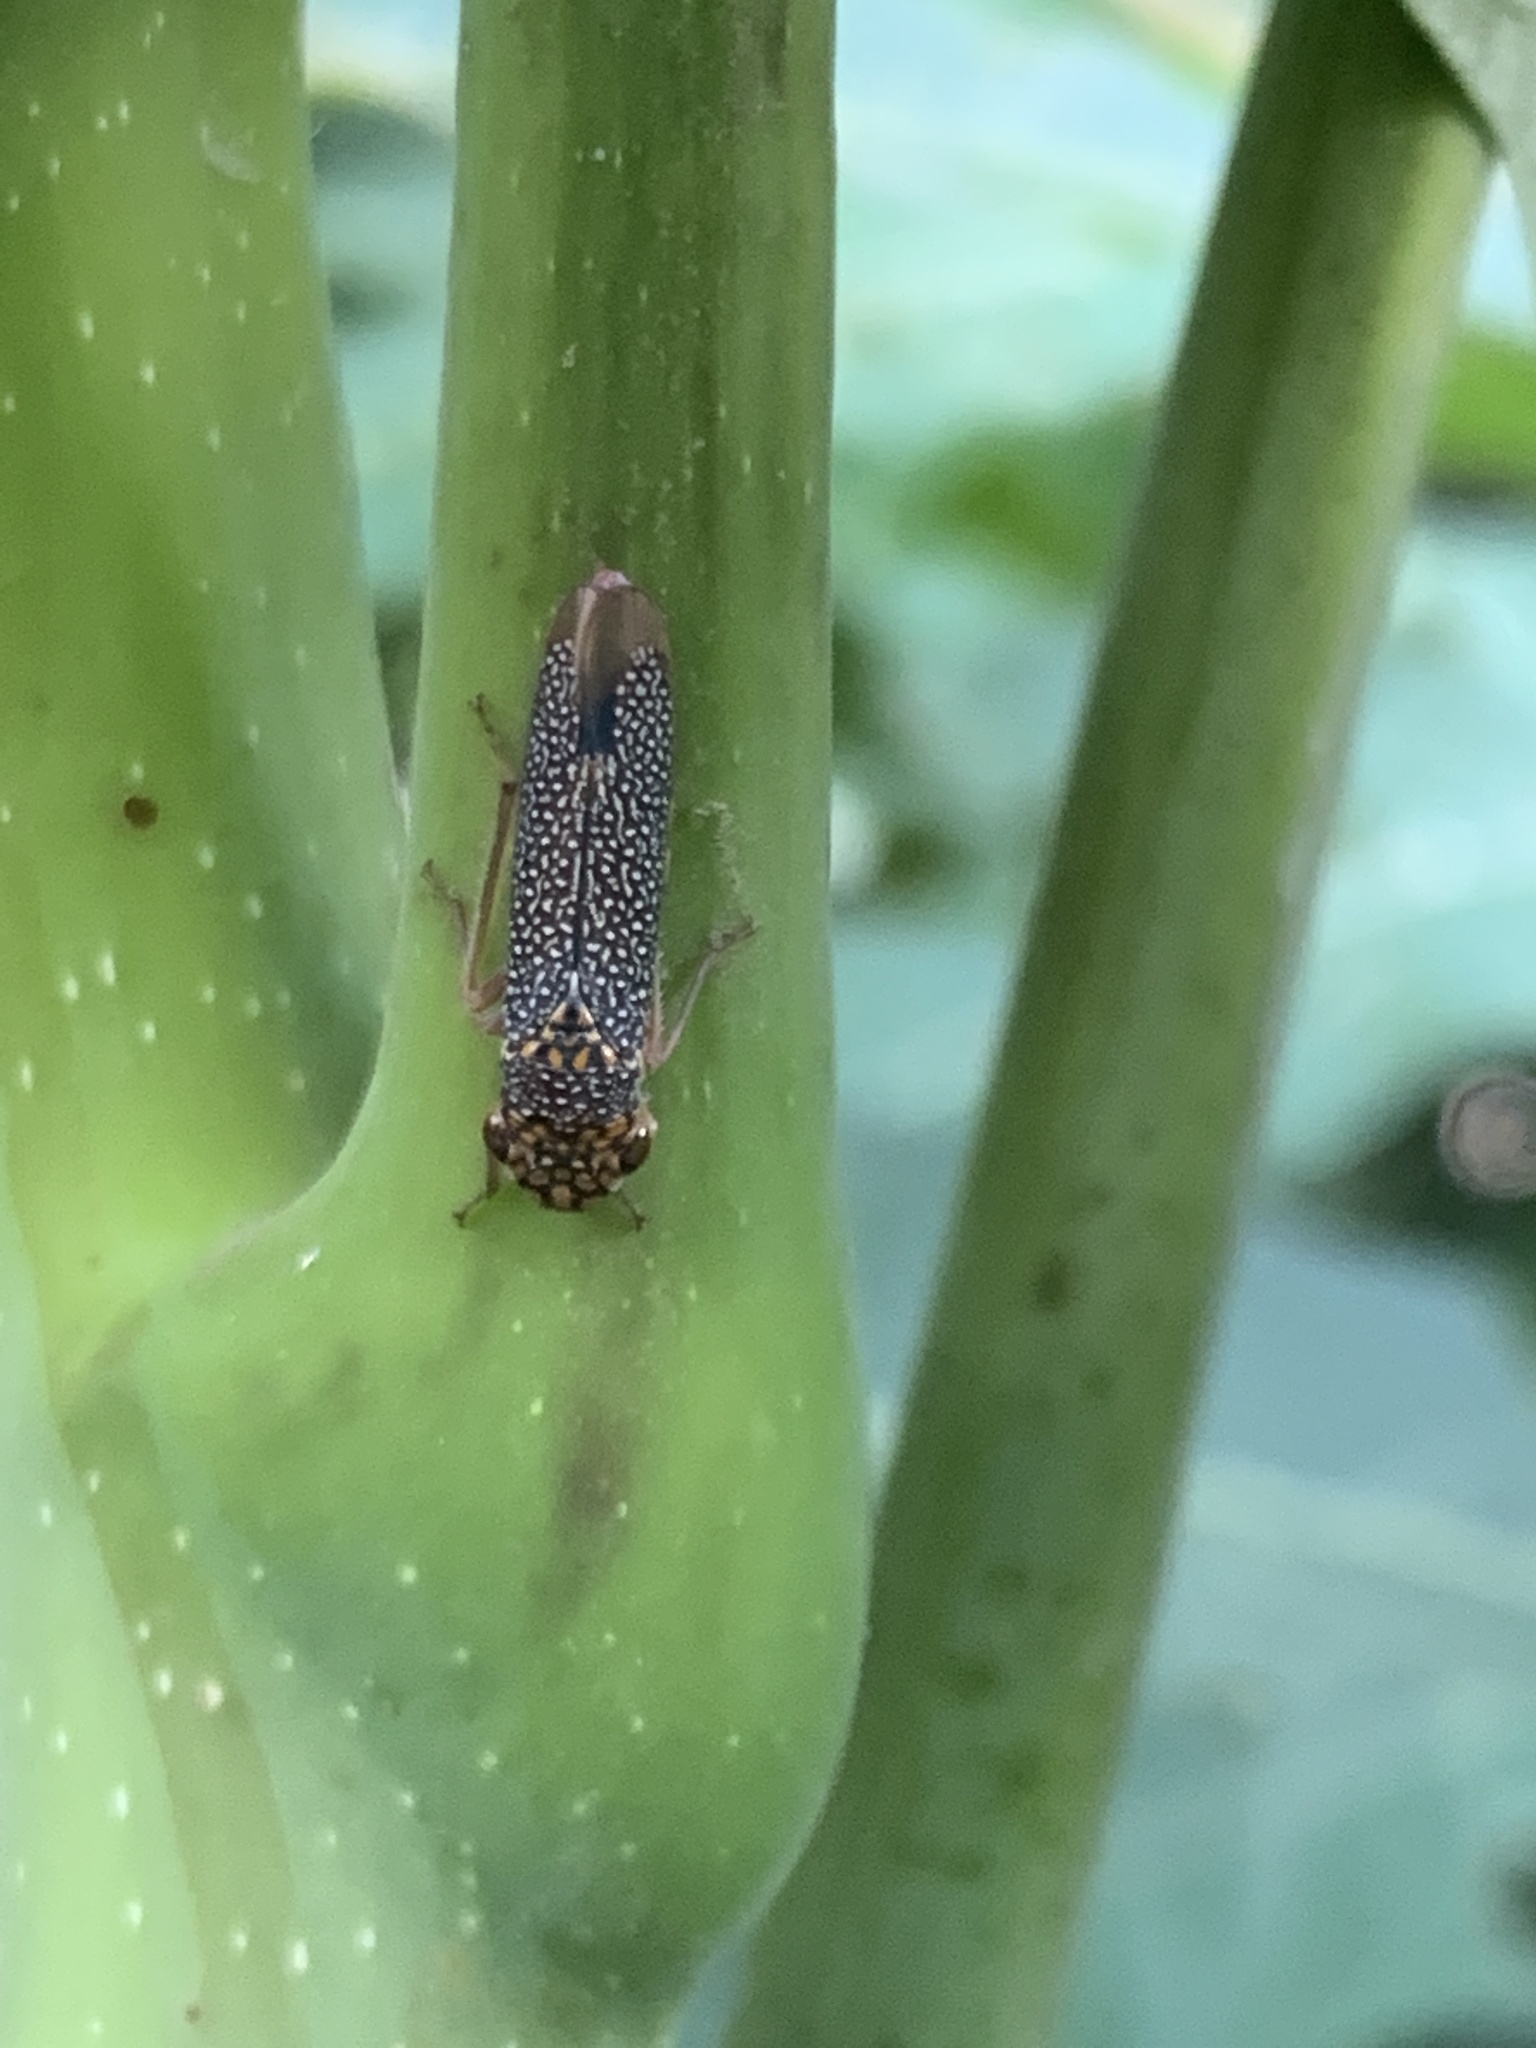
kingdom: Animalia
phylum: Arthropoda
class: Insecta
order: Hemiptera
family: Cicadellidae
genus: Molomea
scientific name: Molomea lineiceps
